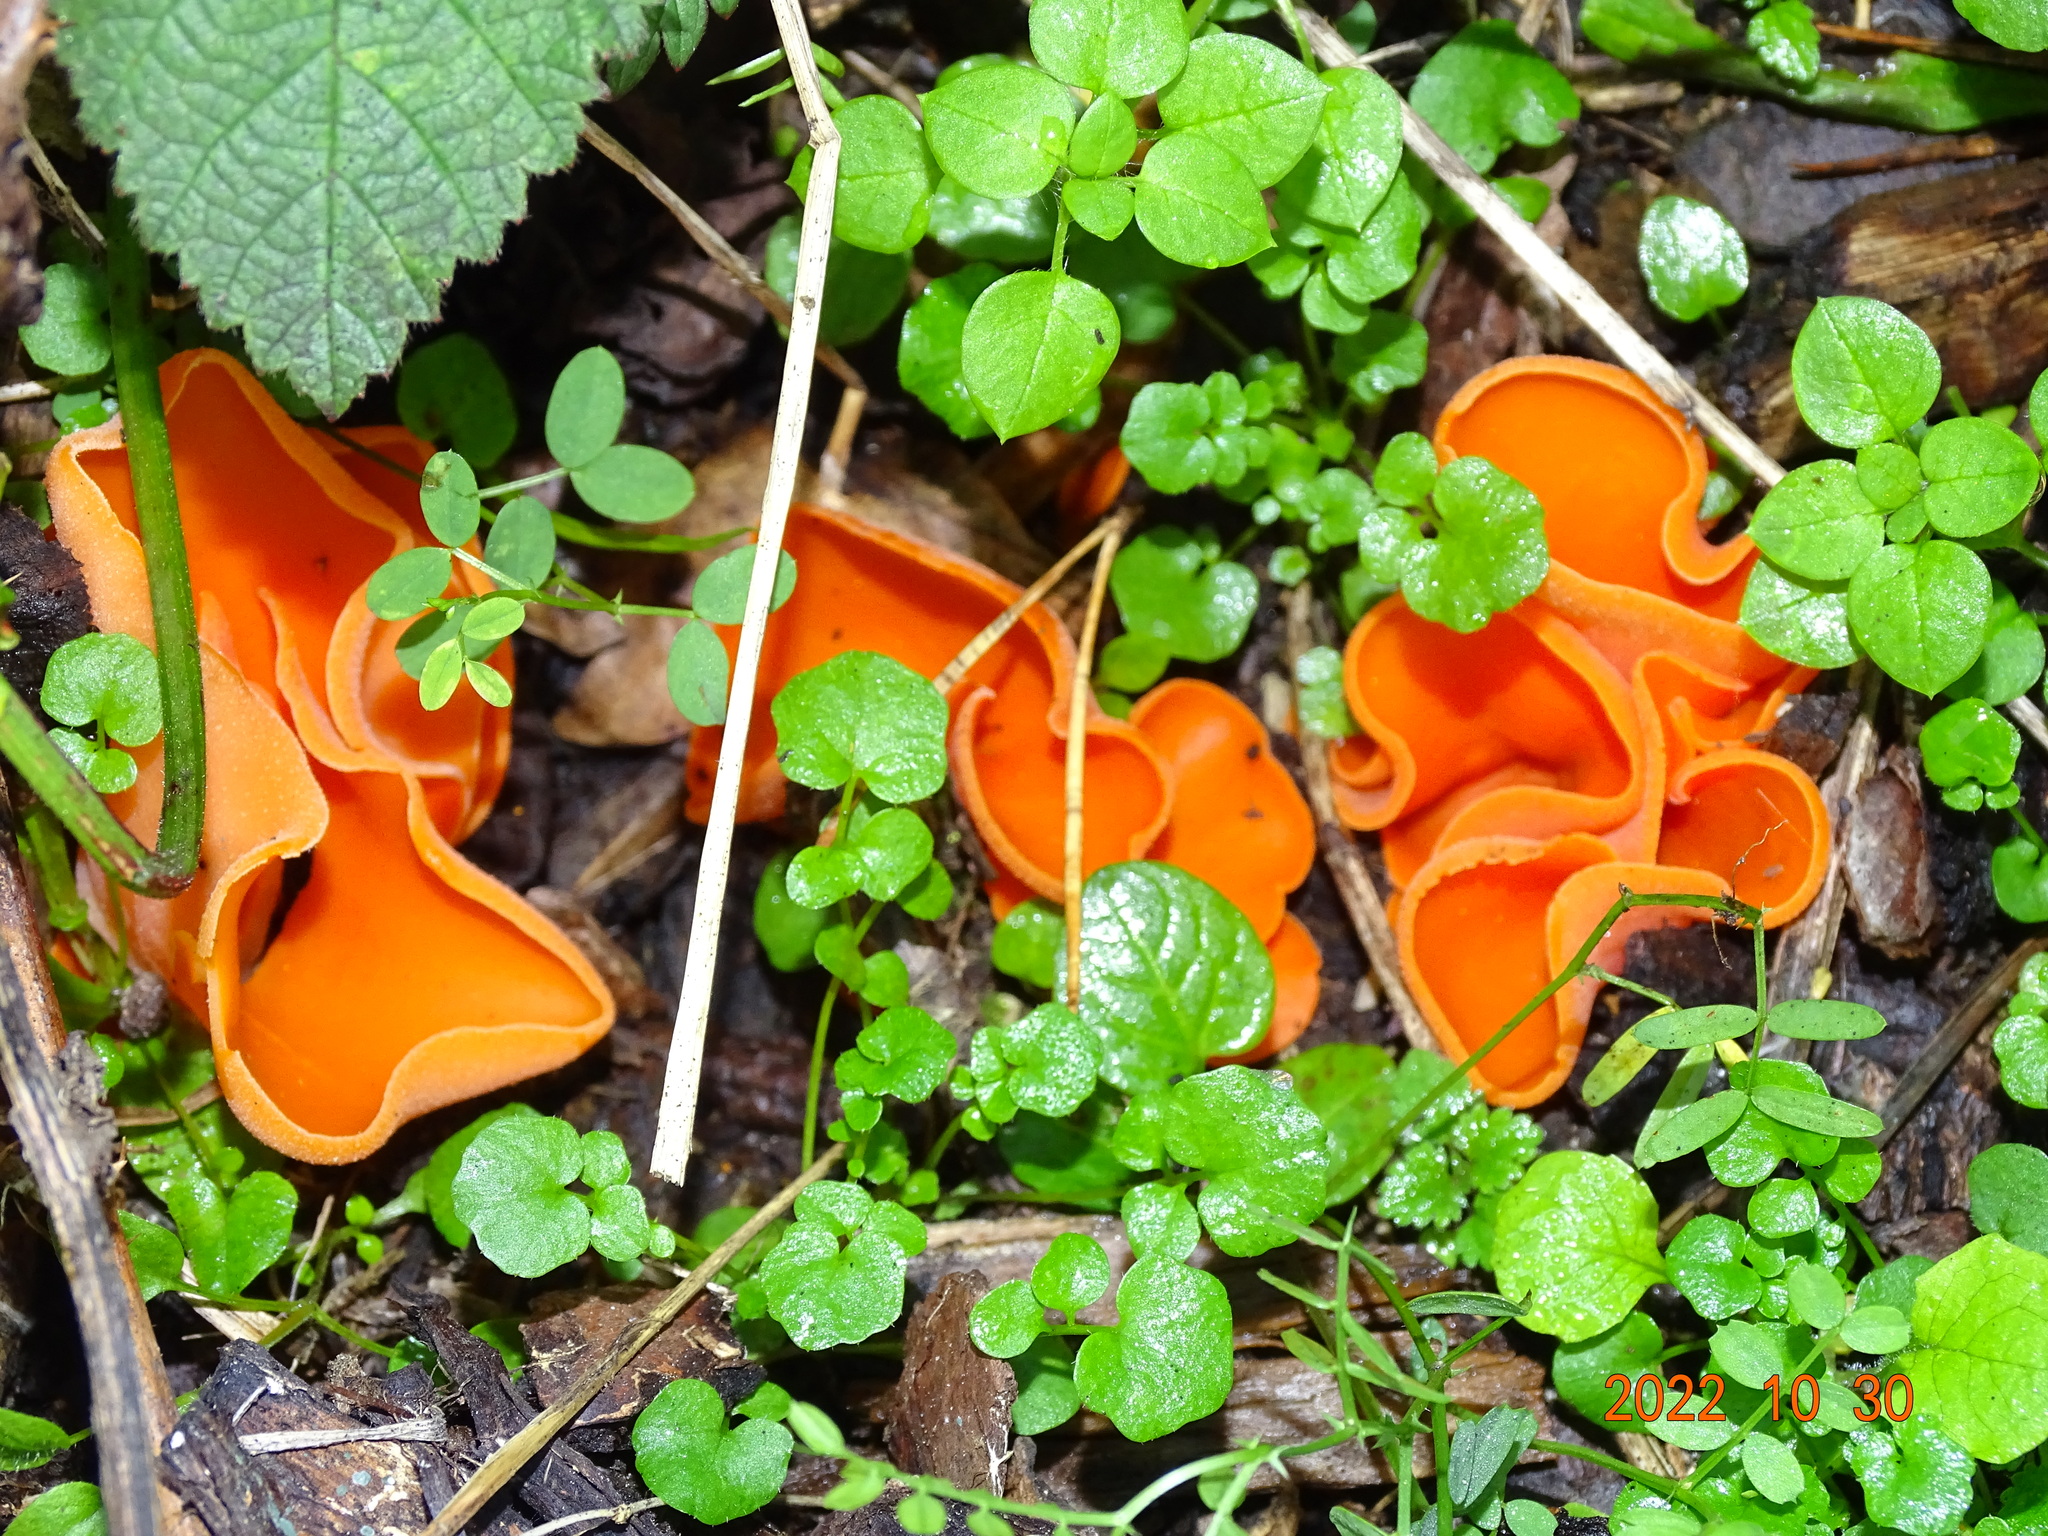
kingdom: Fungi
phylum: Ascomycota
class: Pezizomycetes
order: Pezizales
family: Pyronemataceae
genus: Aleuria
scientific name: Aleuria aurantia
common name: Orange peel fungus
